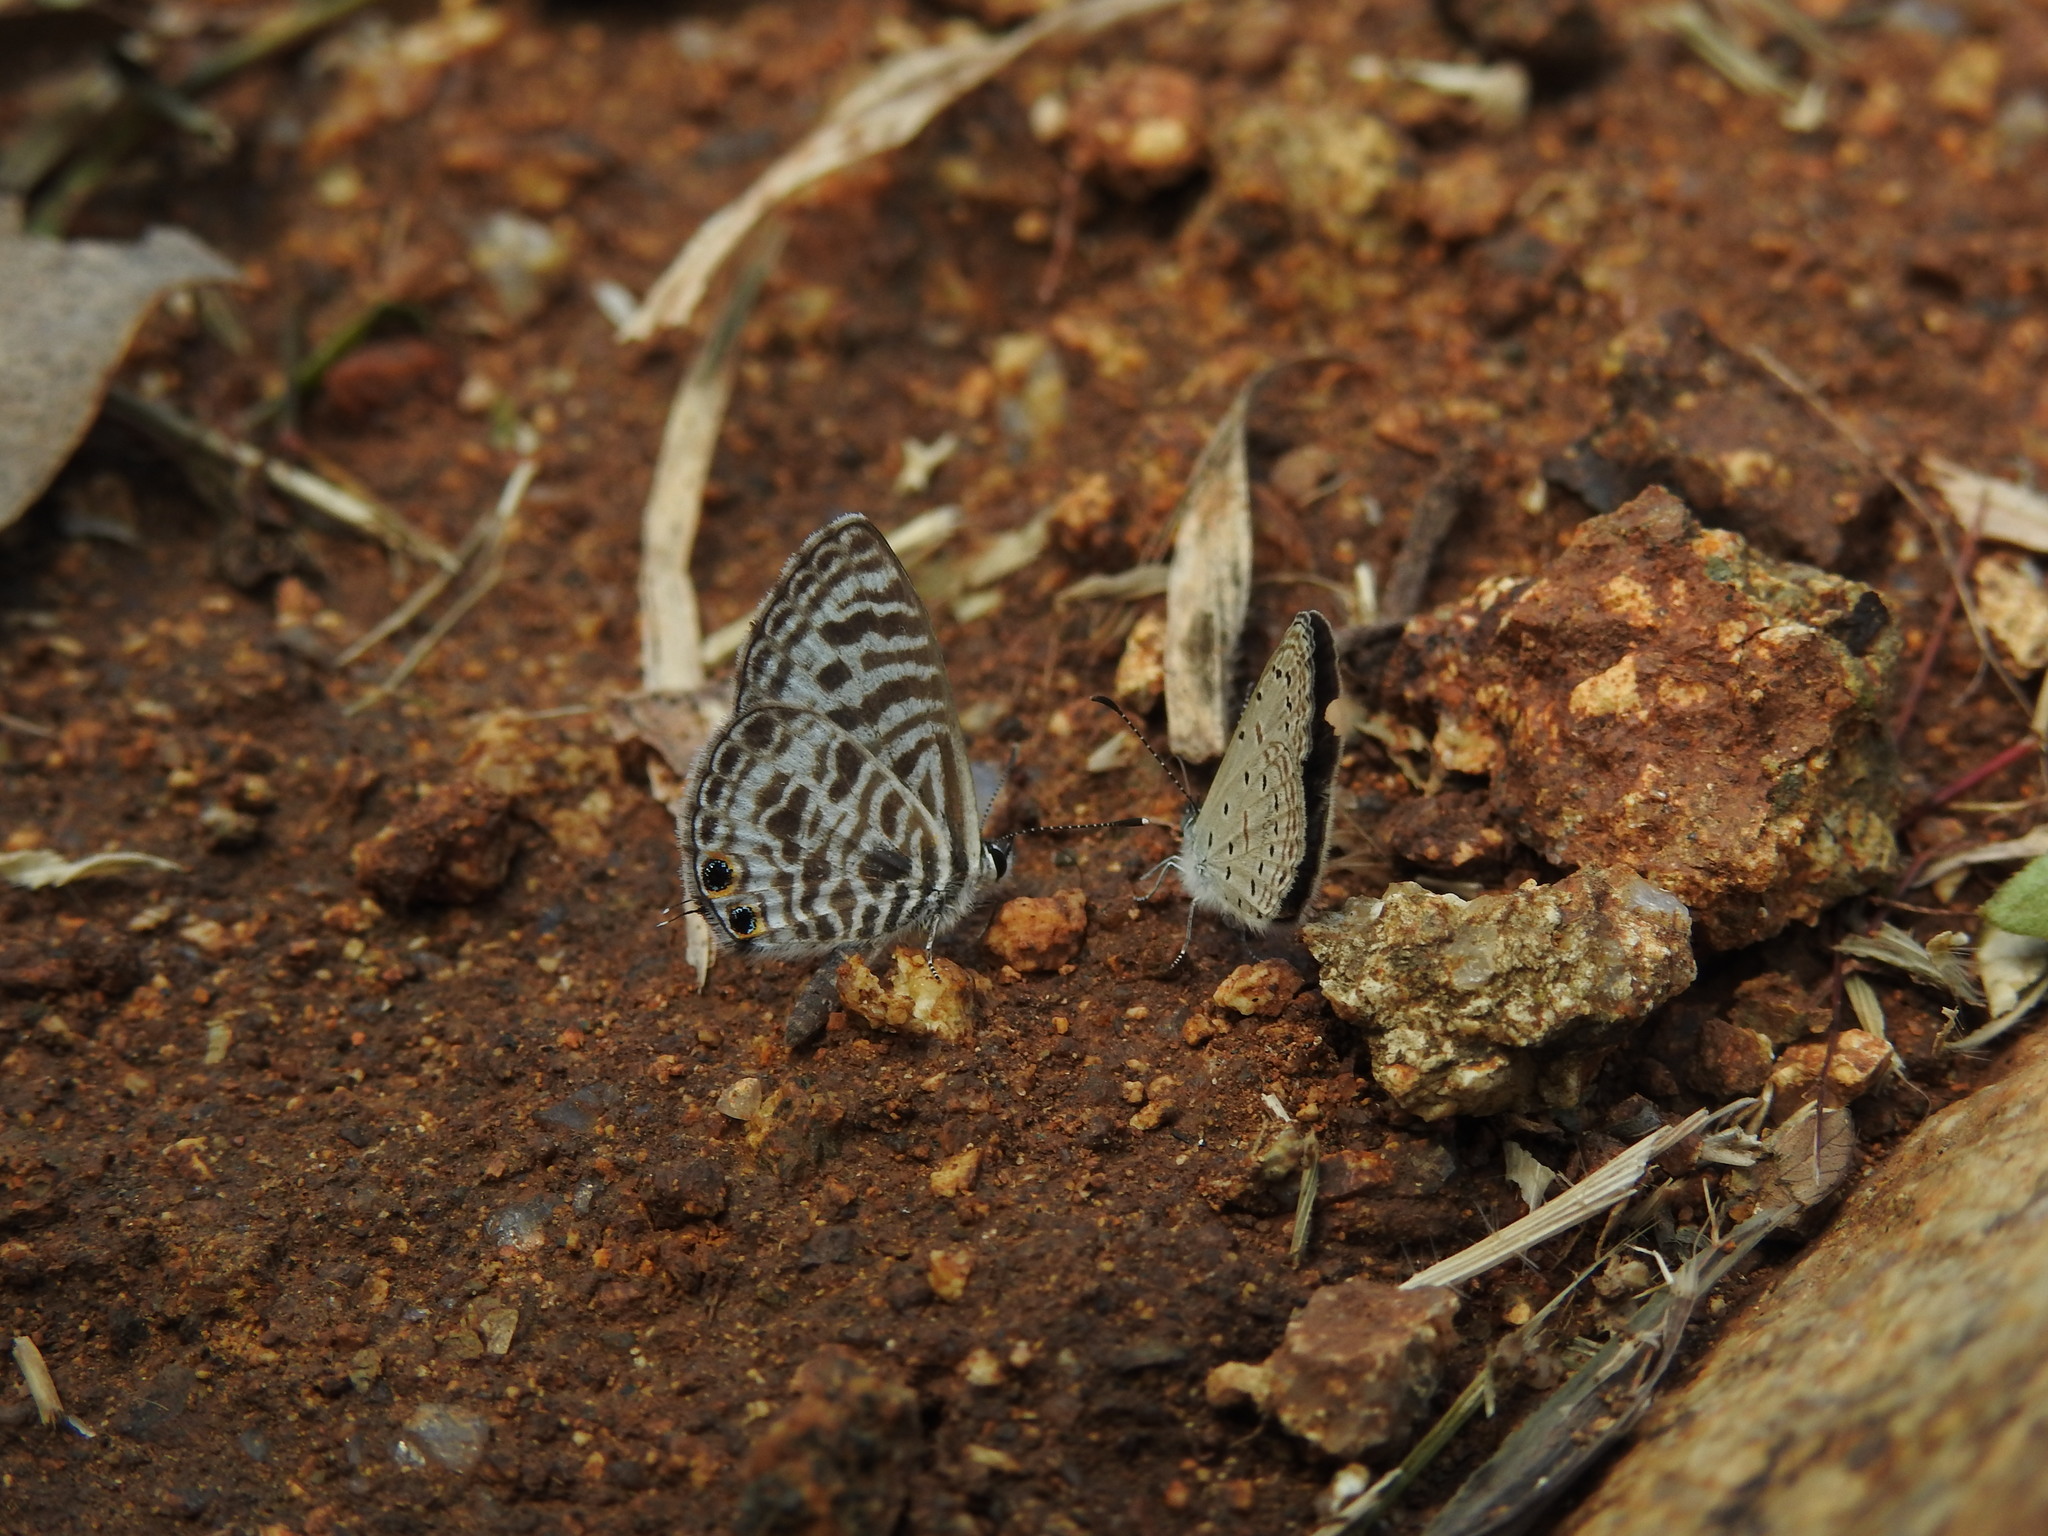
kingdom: Animalia
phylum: Arthropoda
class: Insecta
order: Lepidoptera
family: Lycaenidae
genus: Leptotes
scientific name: Leptotes plinius
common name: Zebra blue
